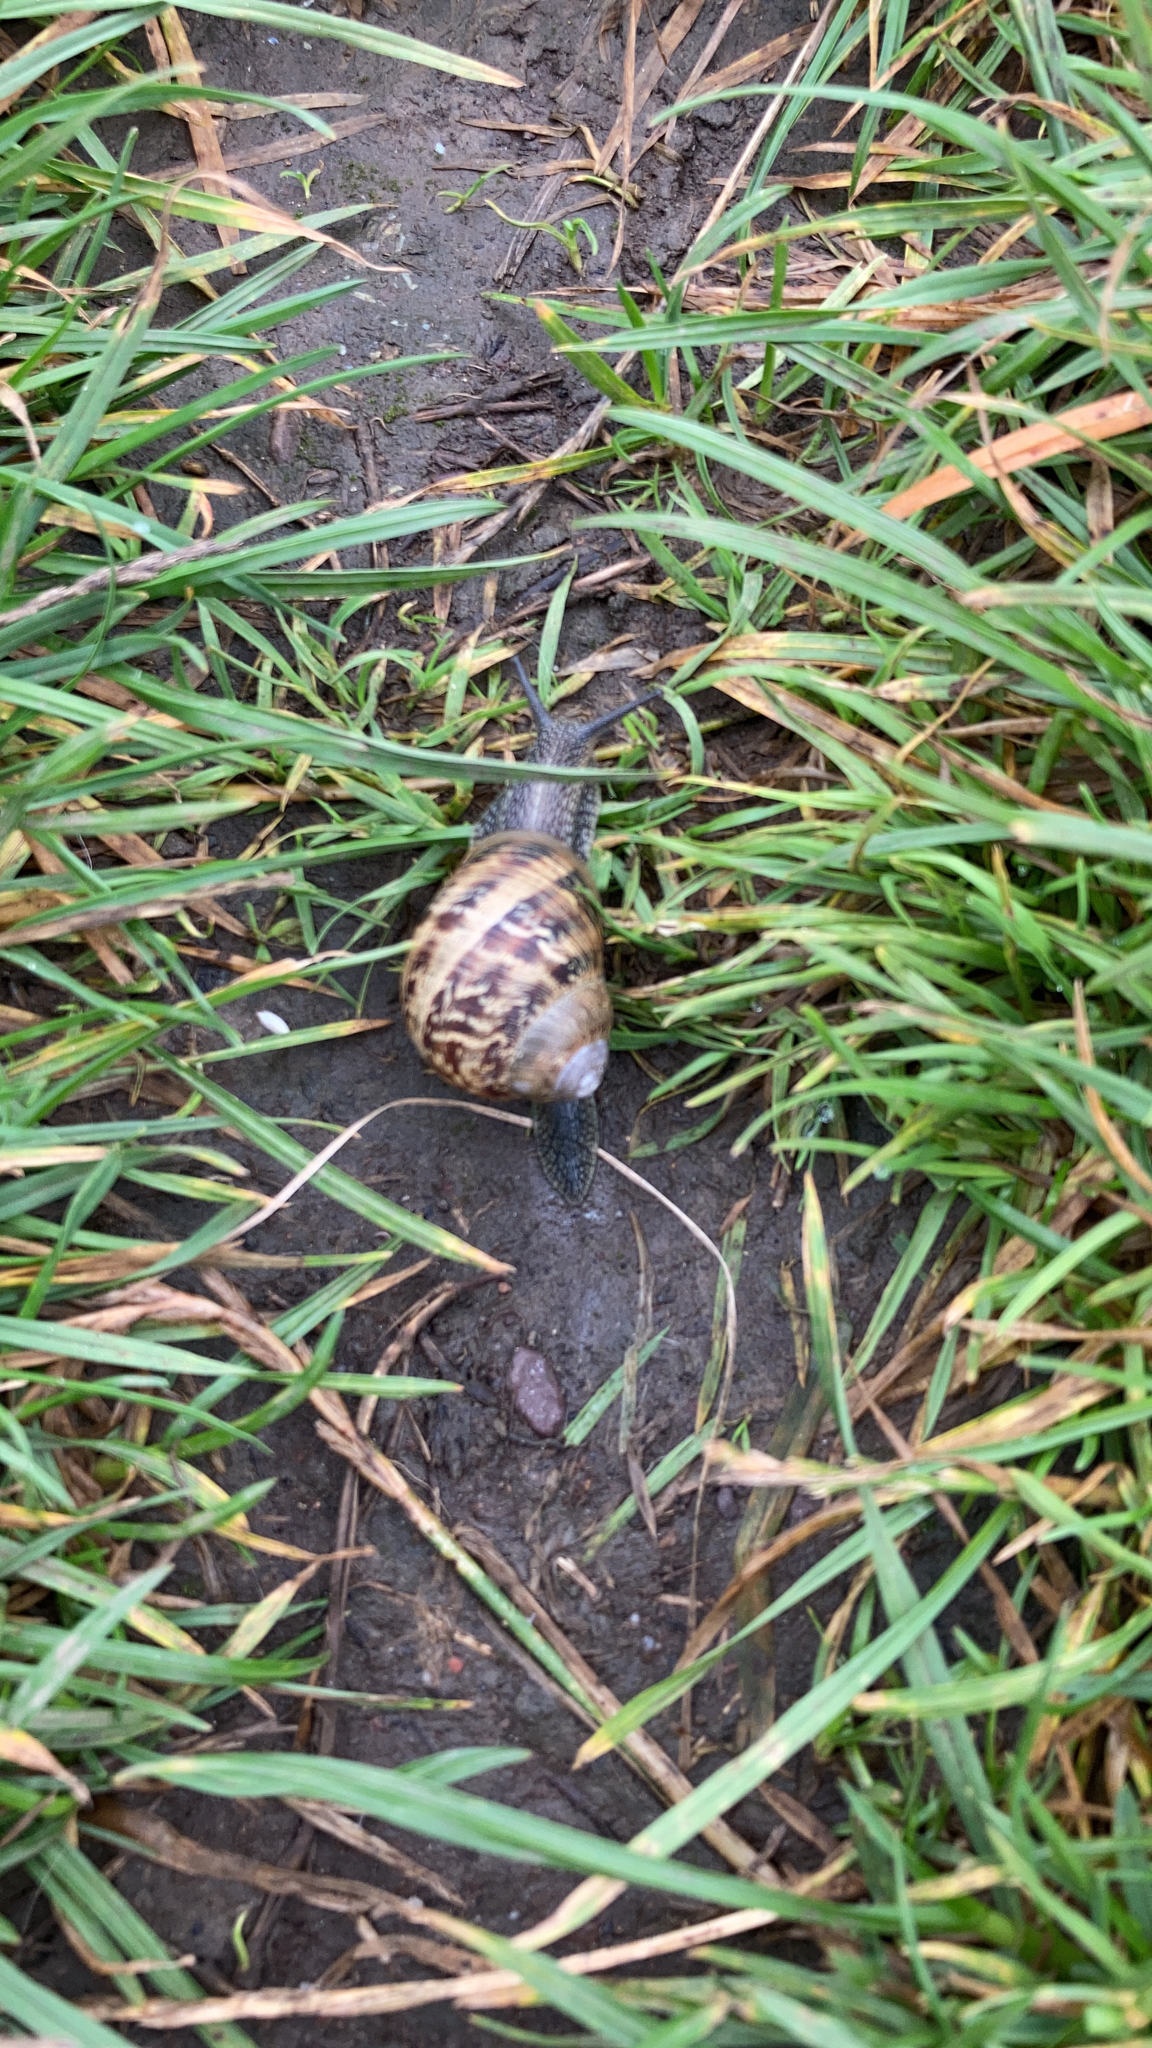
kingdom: Animalia
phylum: Mollusca
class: Gastropoda
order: Stylommatophora
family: Helicidae
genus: Cornu
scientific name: Cornu aspersum
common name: Brown garden snail
